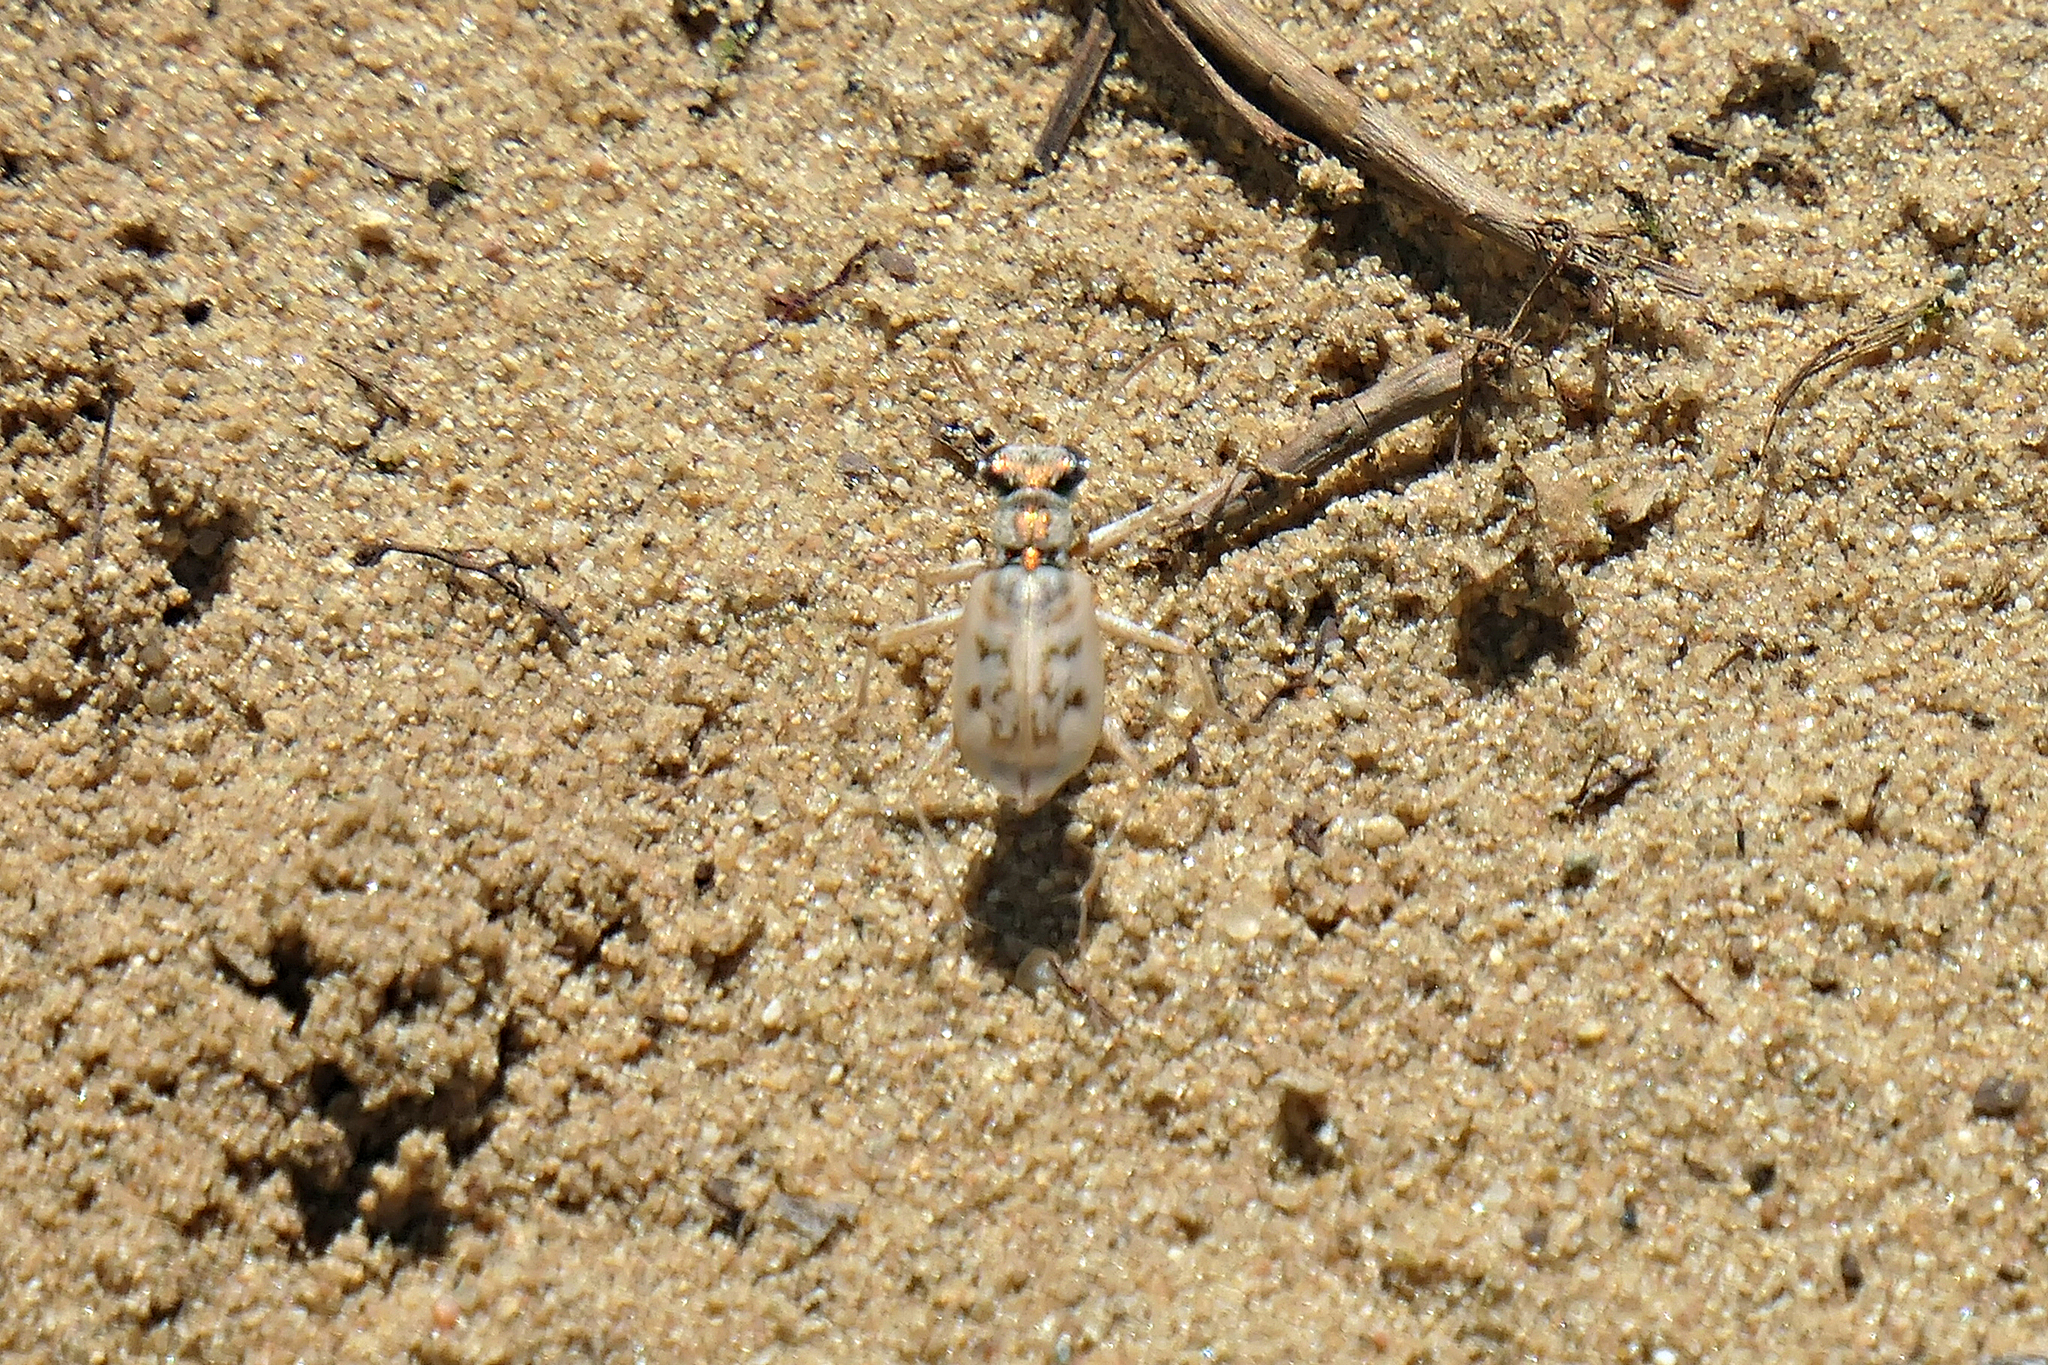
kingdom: Animalia
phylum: Arthropoda
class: Insecta
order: Coleoptera
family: Carabidae
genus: Ellipsoptera
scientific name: Ellipsoptera lepida
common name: Ghost tiger beetle
